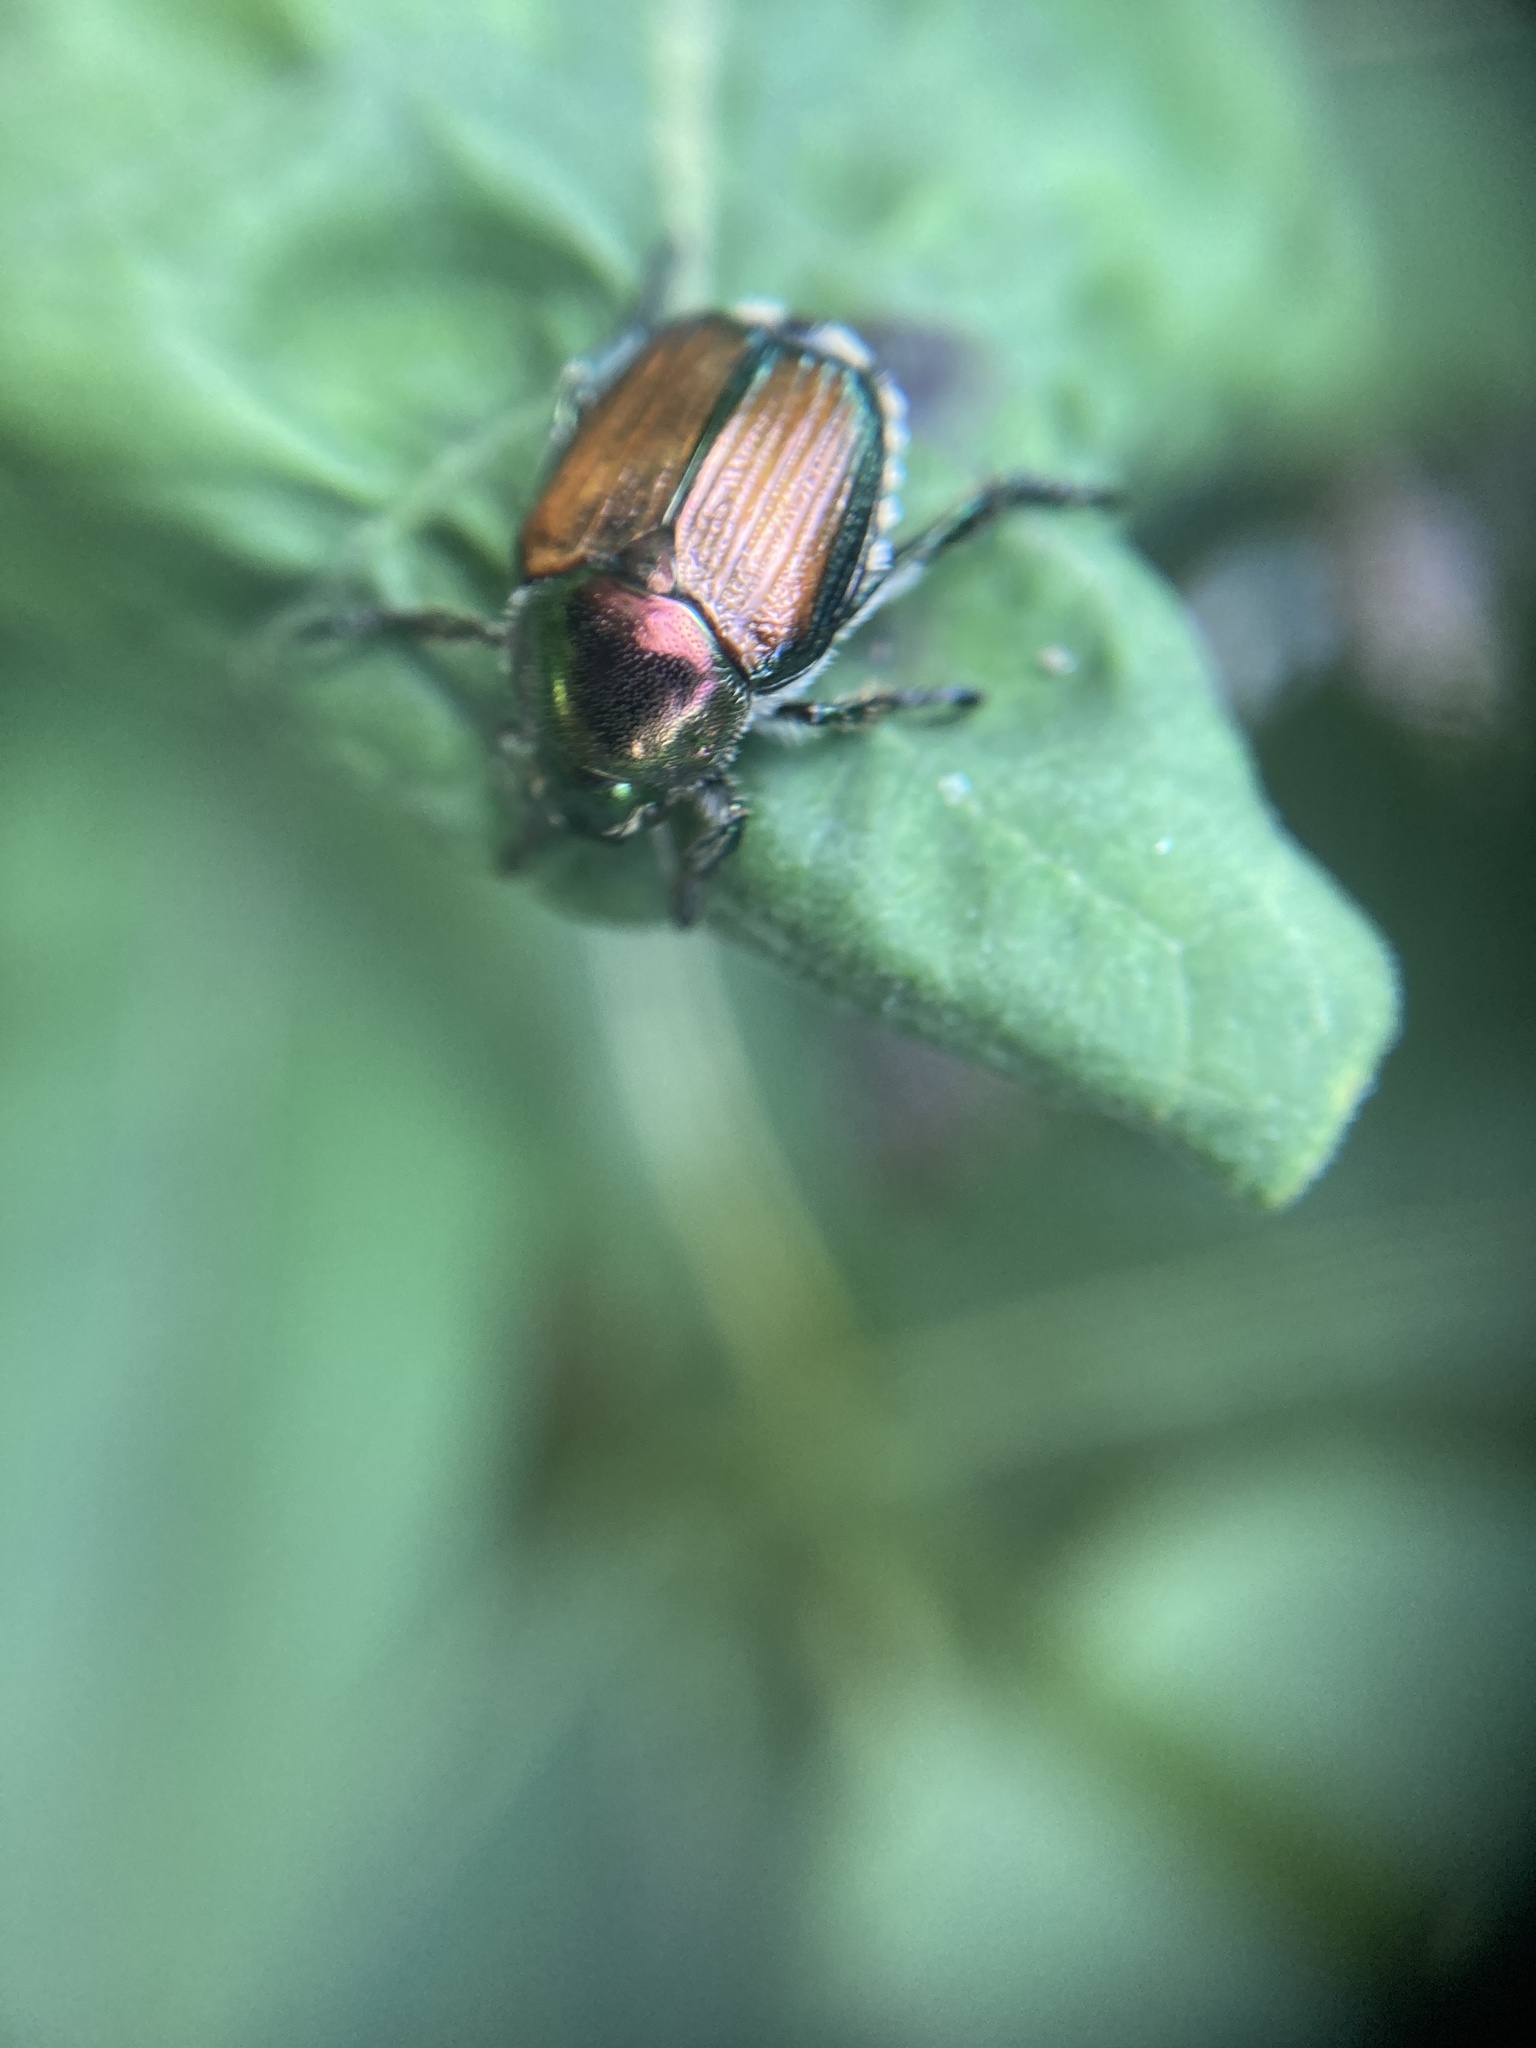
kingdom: Animalia
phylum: Arthropoda
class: Insecta
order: Coleoptera
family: Scarabaeidae
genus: Popillia
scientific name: Popillia japonica
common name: Japanese beetle
